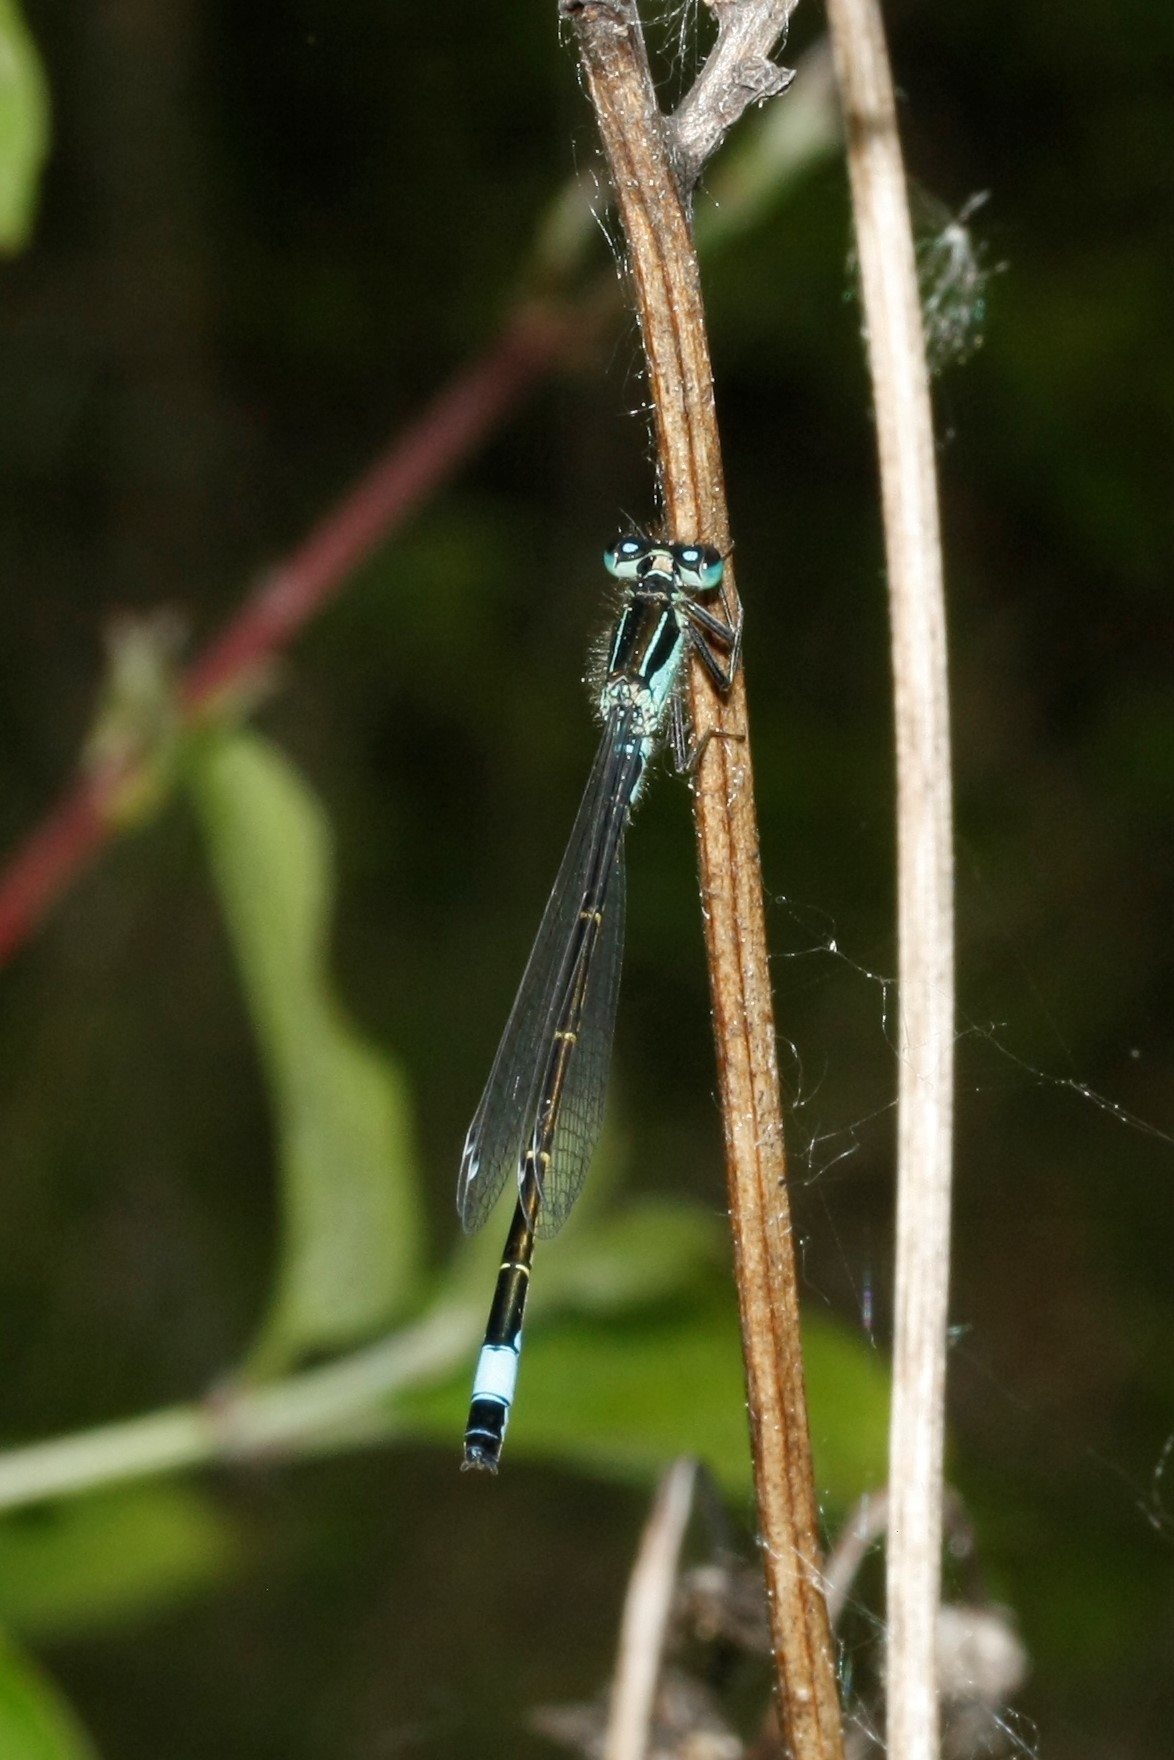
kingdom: Animalia
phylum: Arthropoda
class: Insecta
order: Odonata
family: Coenagrionidae
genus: Ischnura
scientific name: Ischnura elegans
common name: Blue-tailed damselfly
